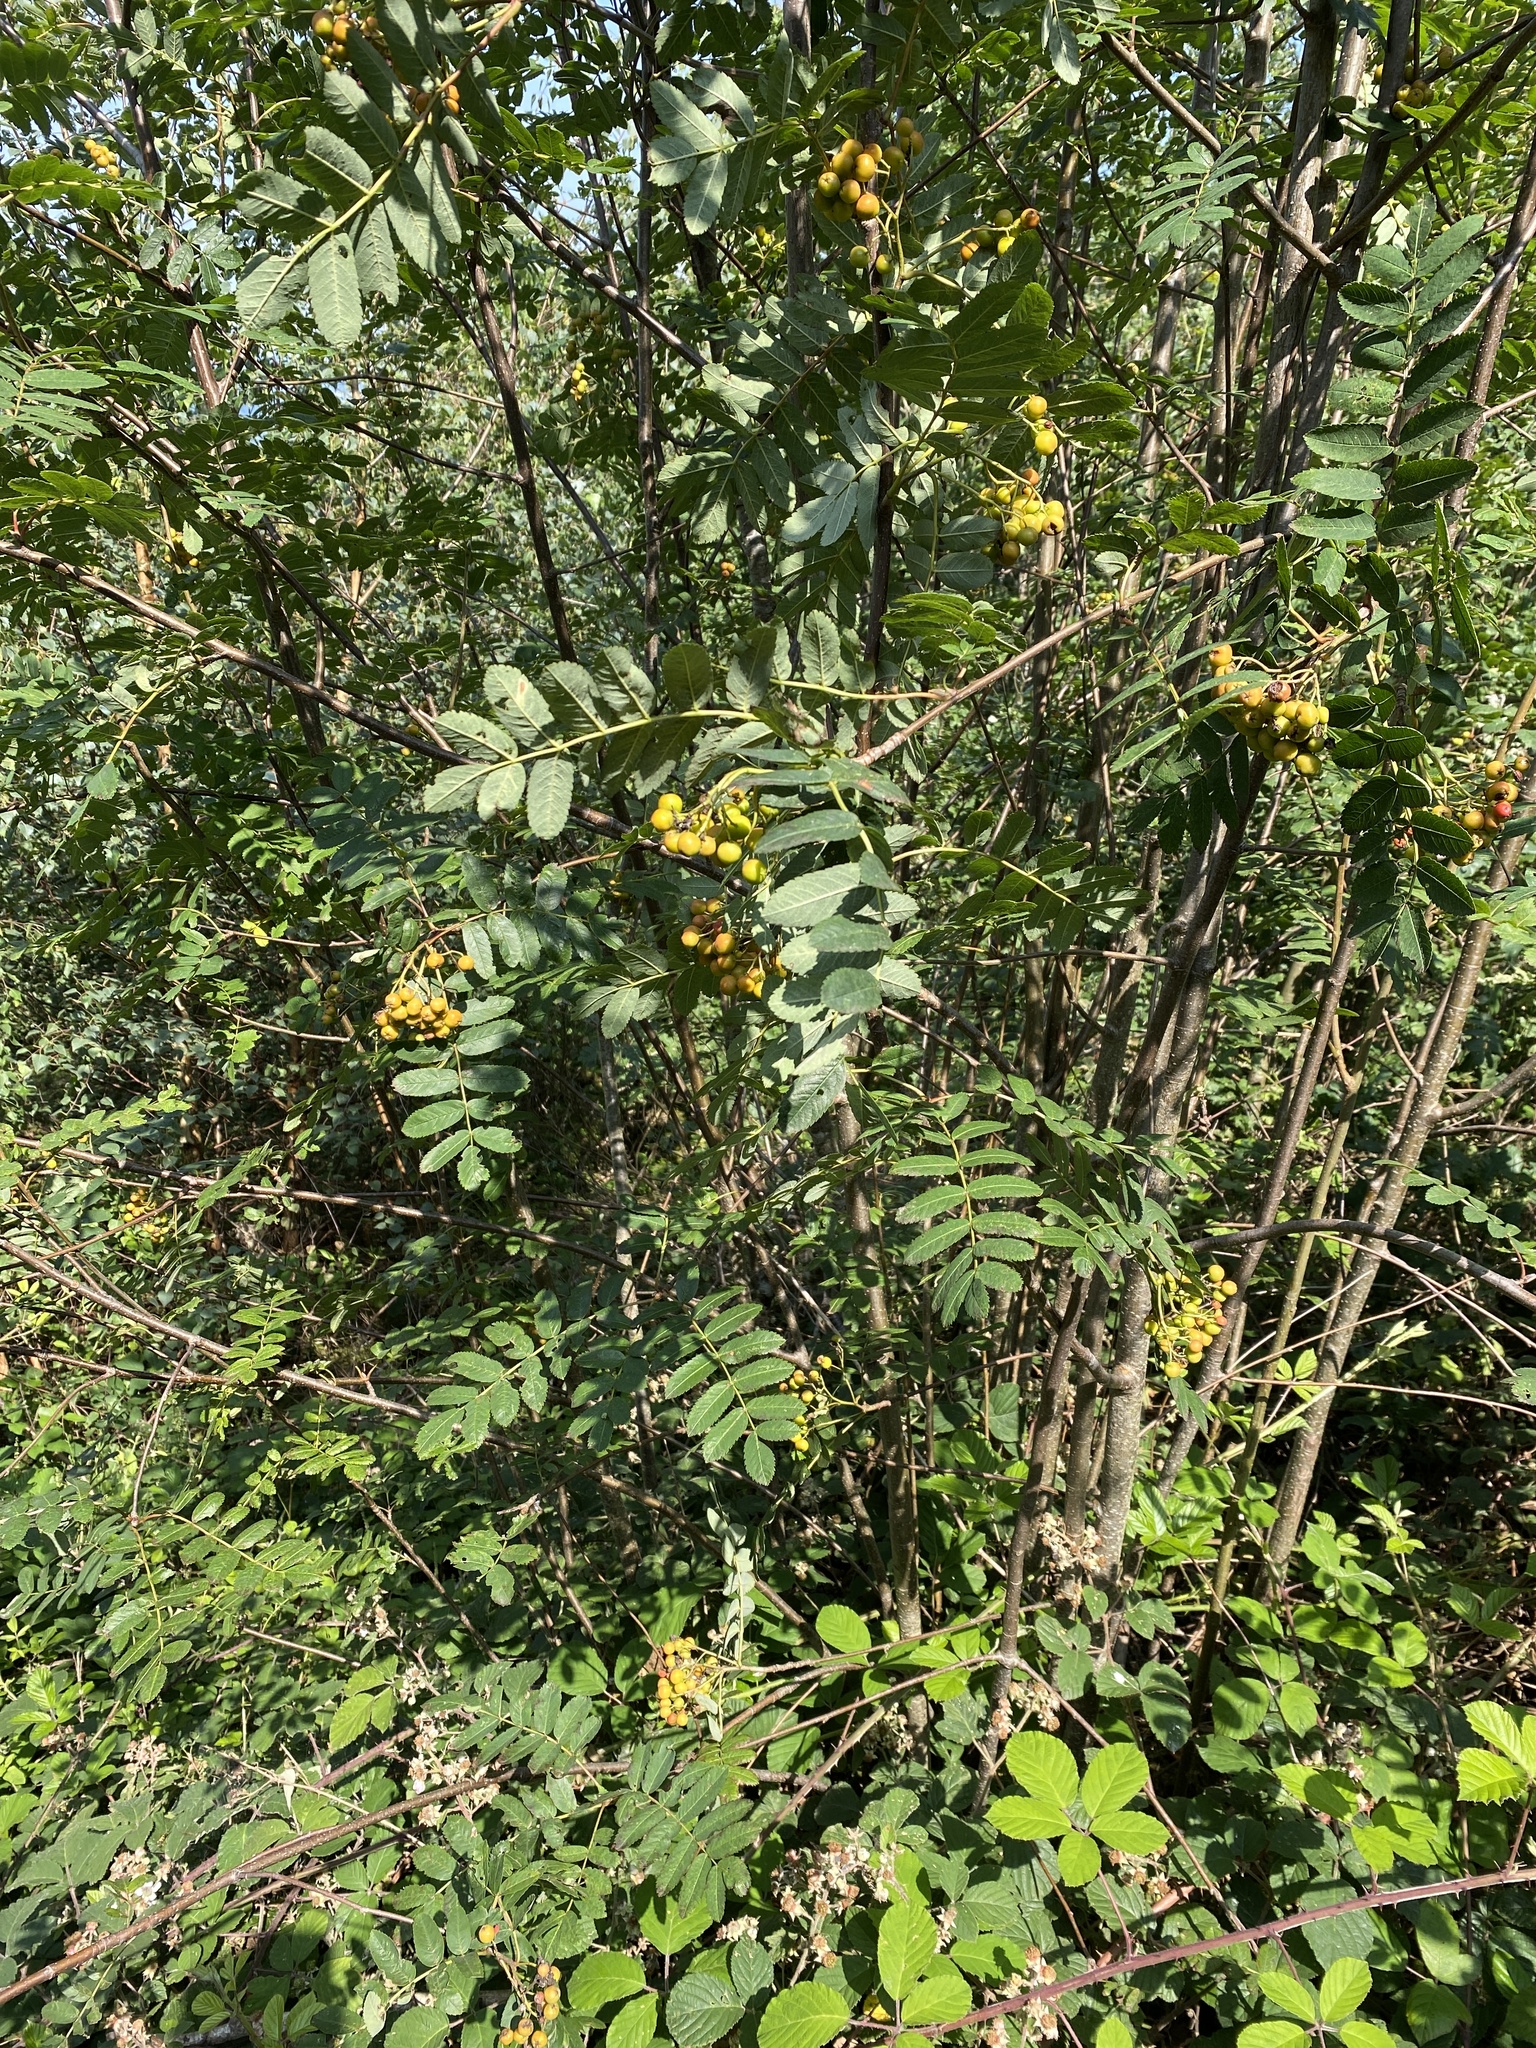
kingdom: Plantae
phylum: Tracheophyta
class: Magnoliopsida
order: Rosales
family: Rosaceae
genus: Sorbus
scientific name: Sorbus aucuparia
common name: Rowan
